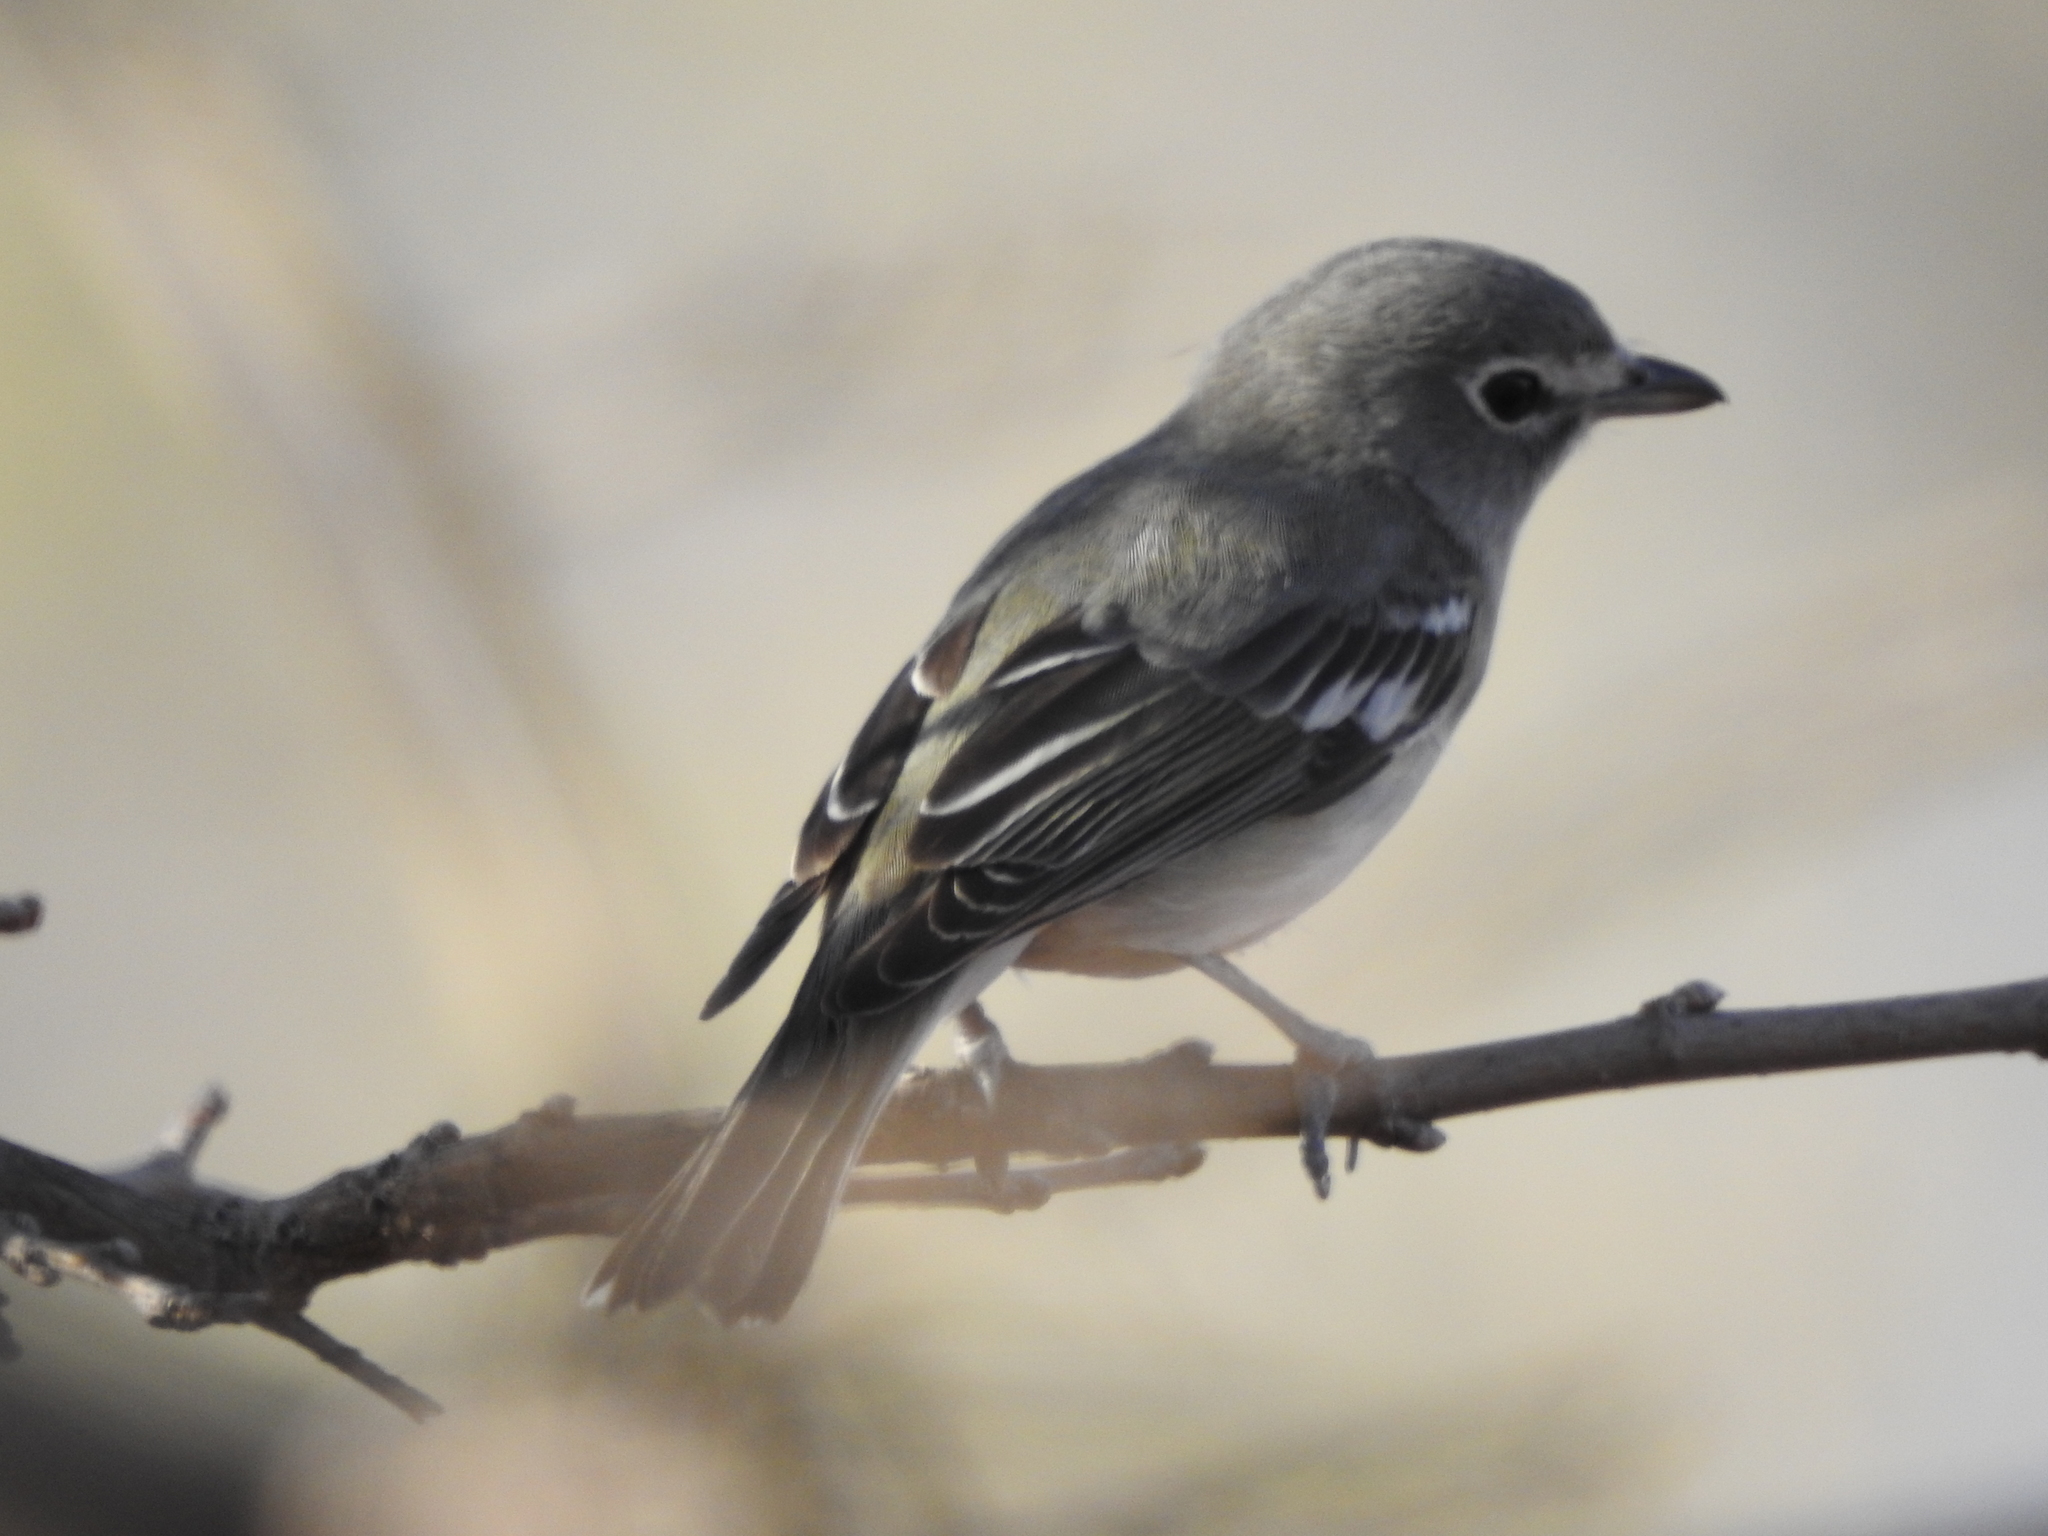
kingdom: Animalia
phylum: Chordata
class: Aves
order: Passeriformes
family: Vireonidae
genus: Vireo
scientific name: Vireo plumbeus
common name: Plumbeous vireo
